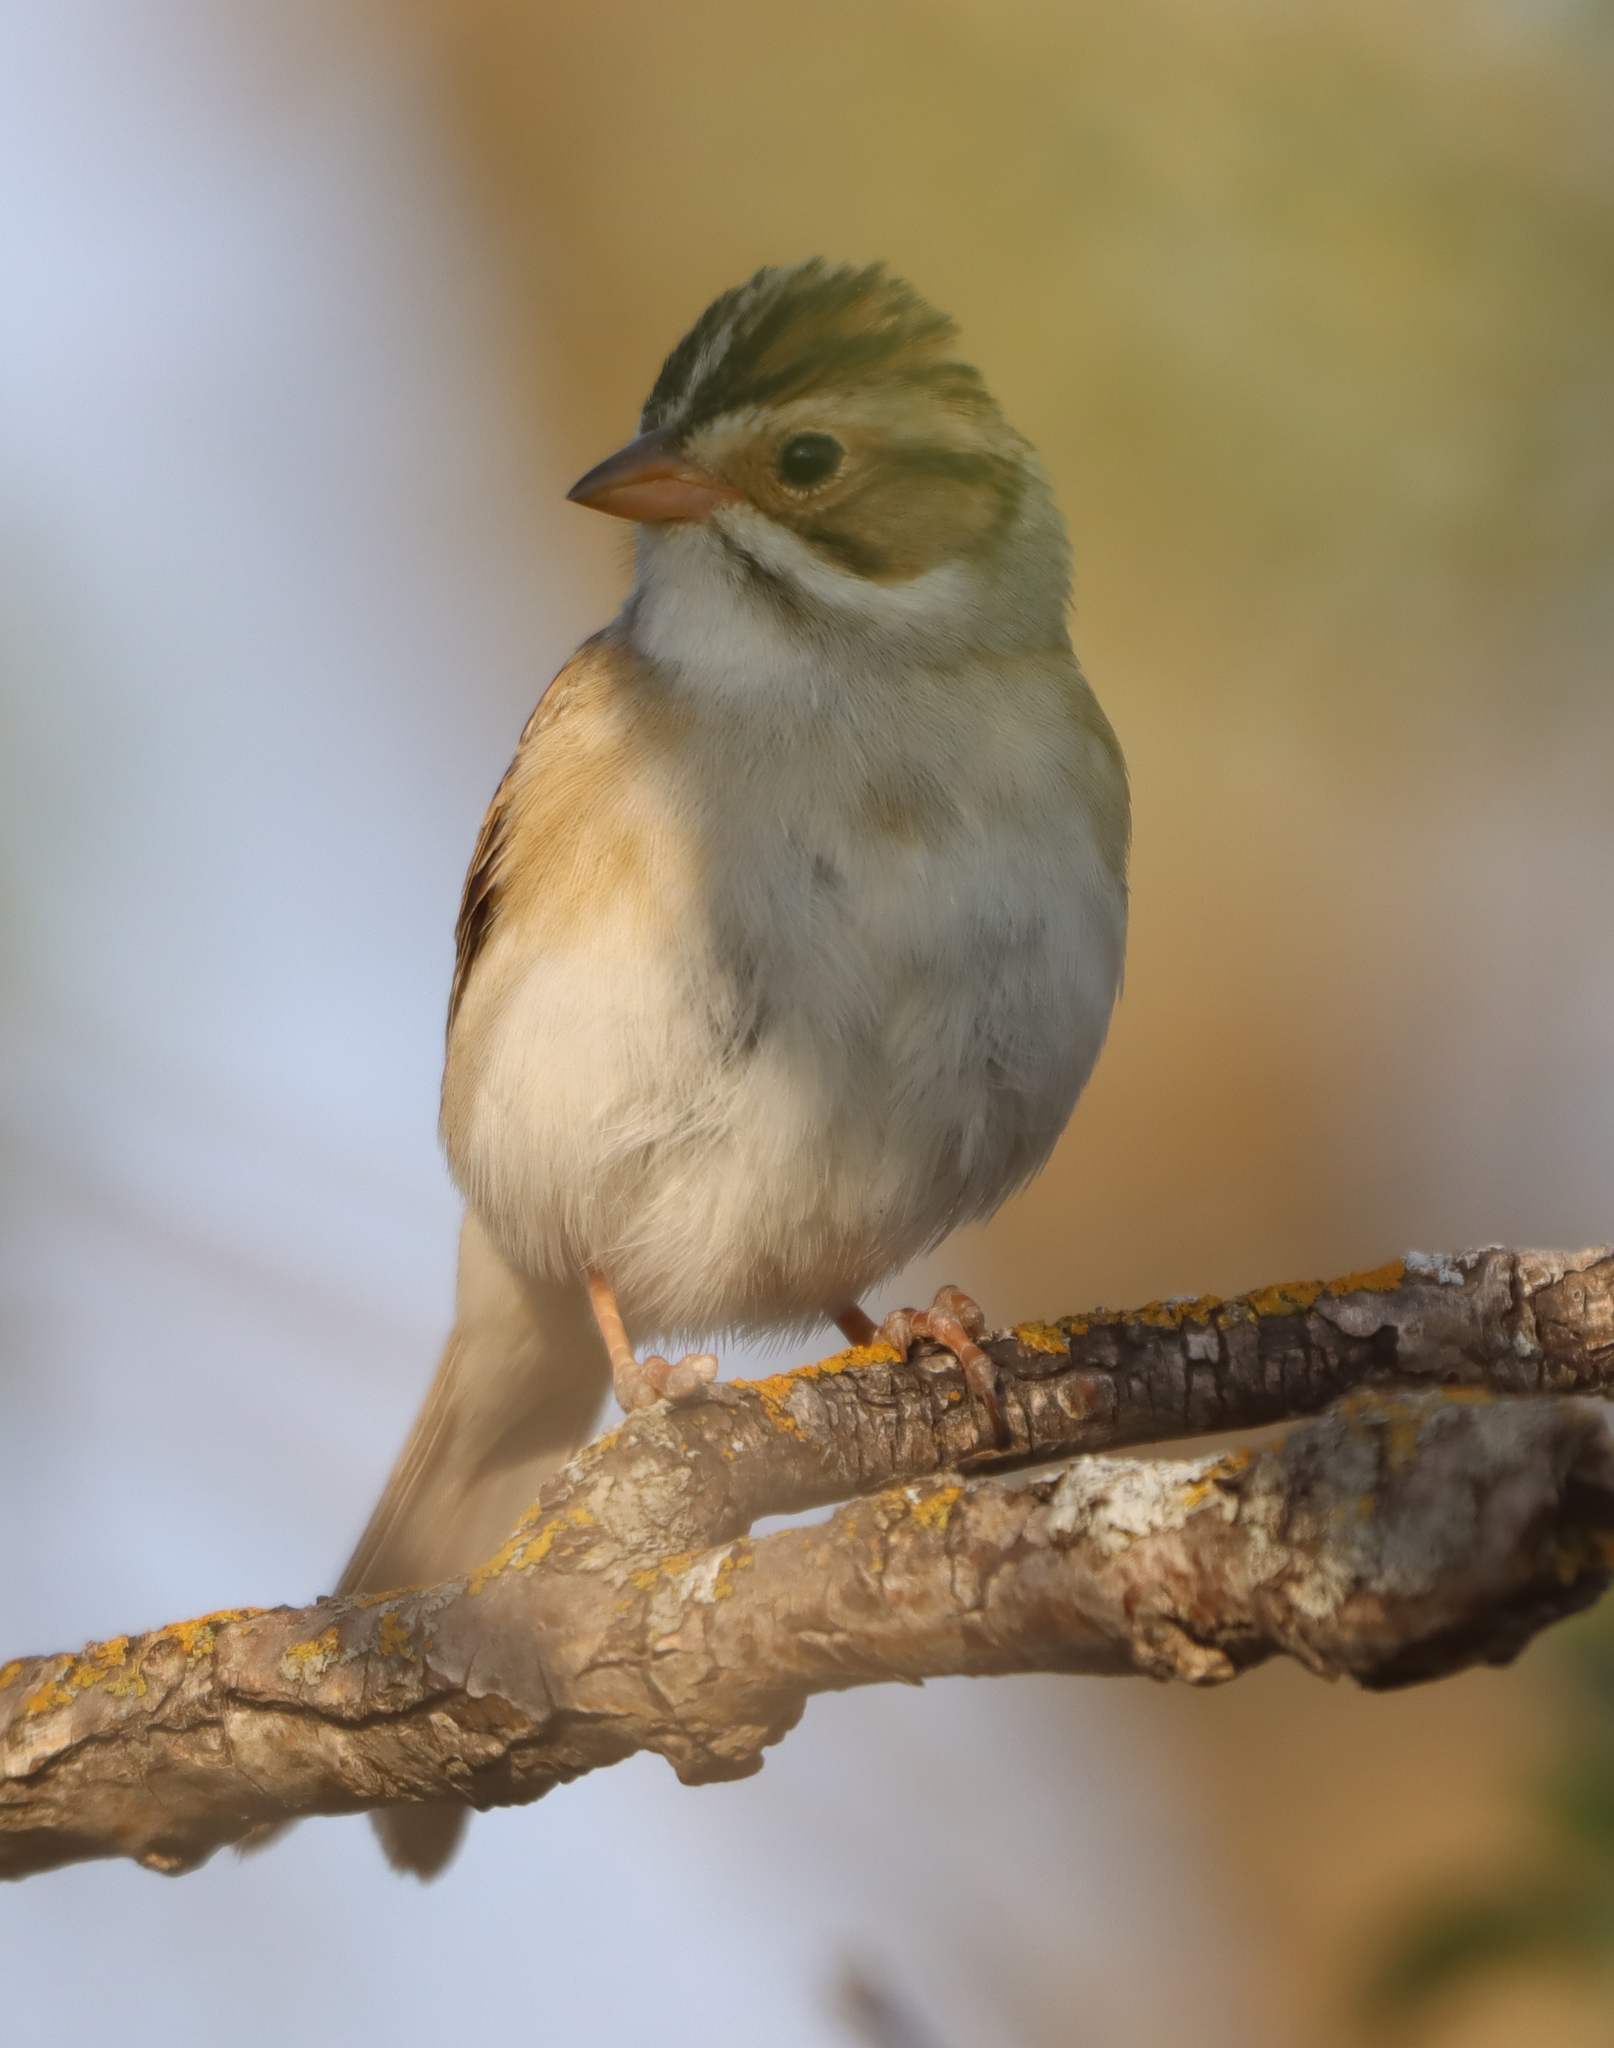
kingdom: Animalia
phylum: Chordata
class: Aves
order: Passeriformes
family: Passerellidae
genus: Spizella
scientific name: Spizella pallida
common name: Clay-colored sparrow
